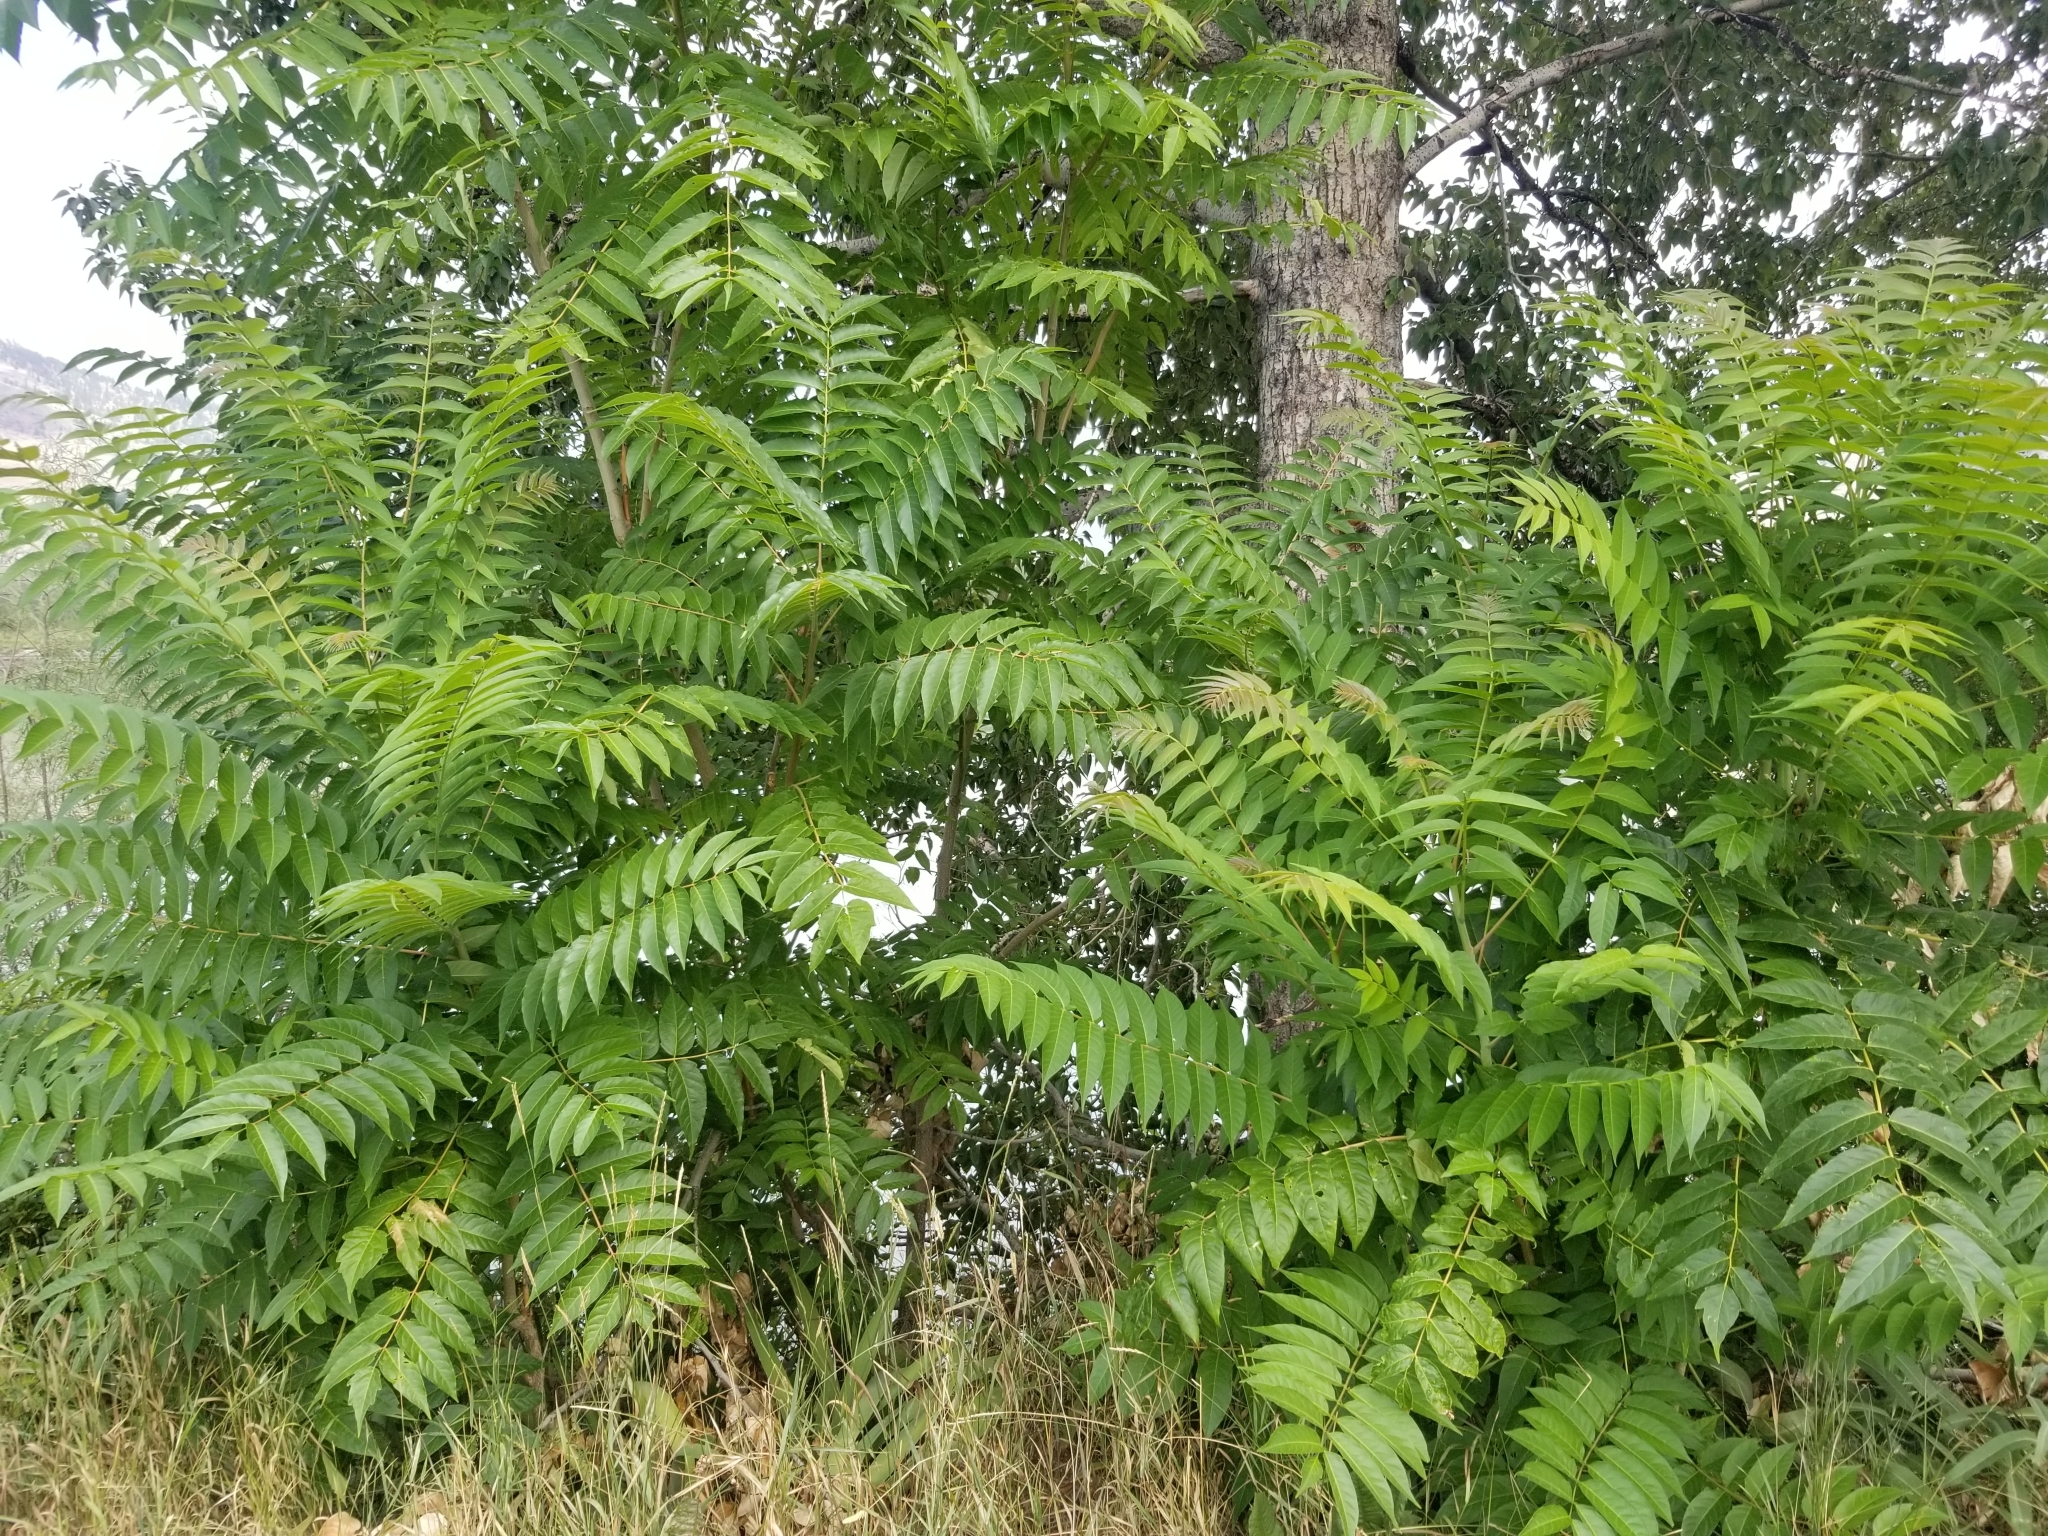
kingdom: Plantae
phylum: Tracheophyta
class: Magnoliopsida
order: Sapindales
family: Simaroubaceae
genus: Ailanthus
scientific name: Ailanthus altissima
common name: Tree-of-heaven
